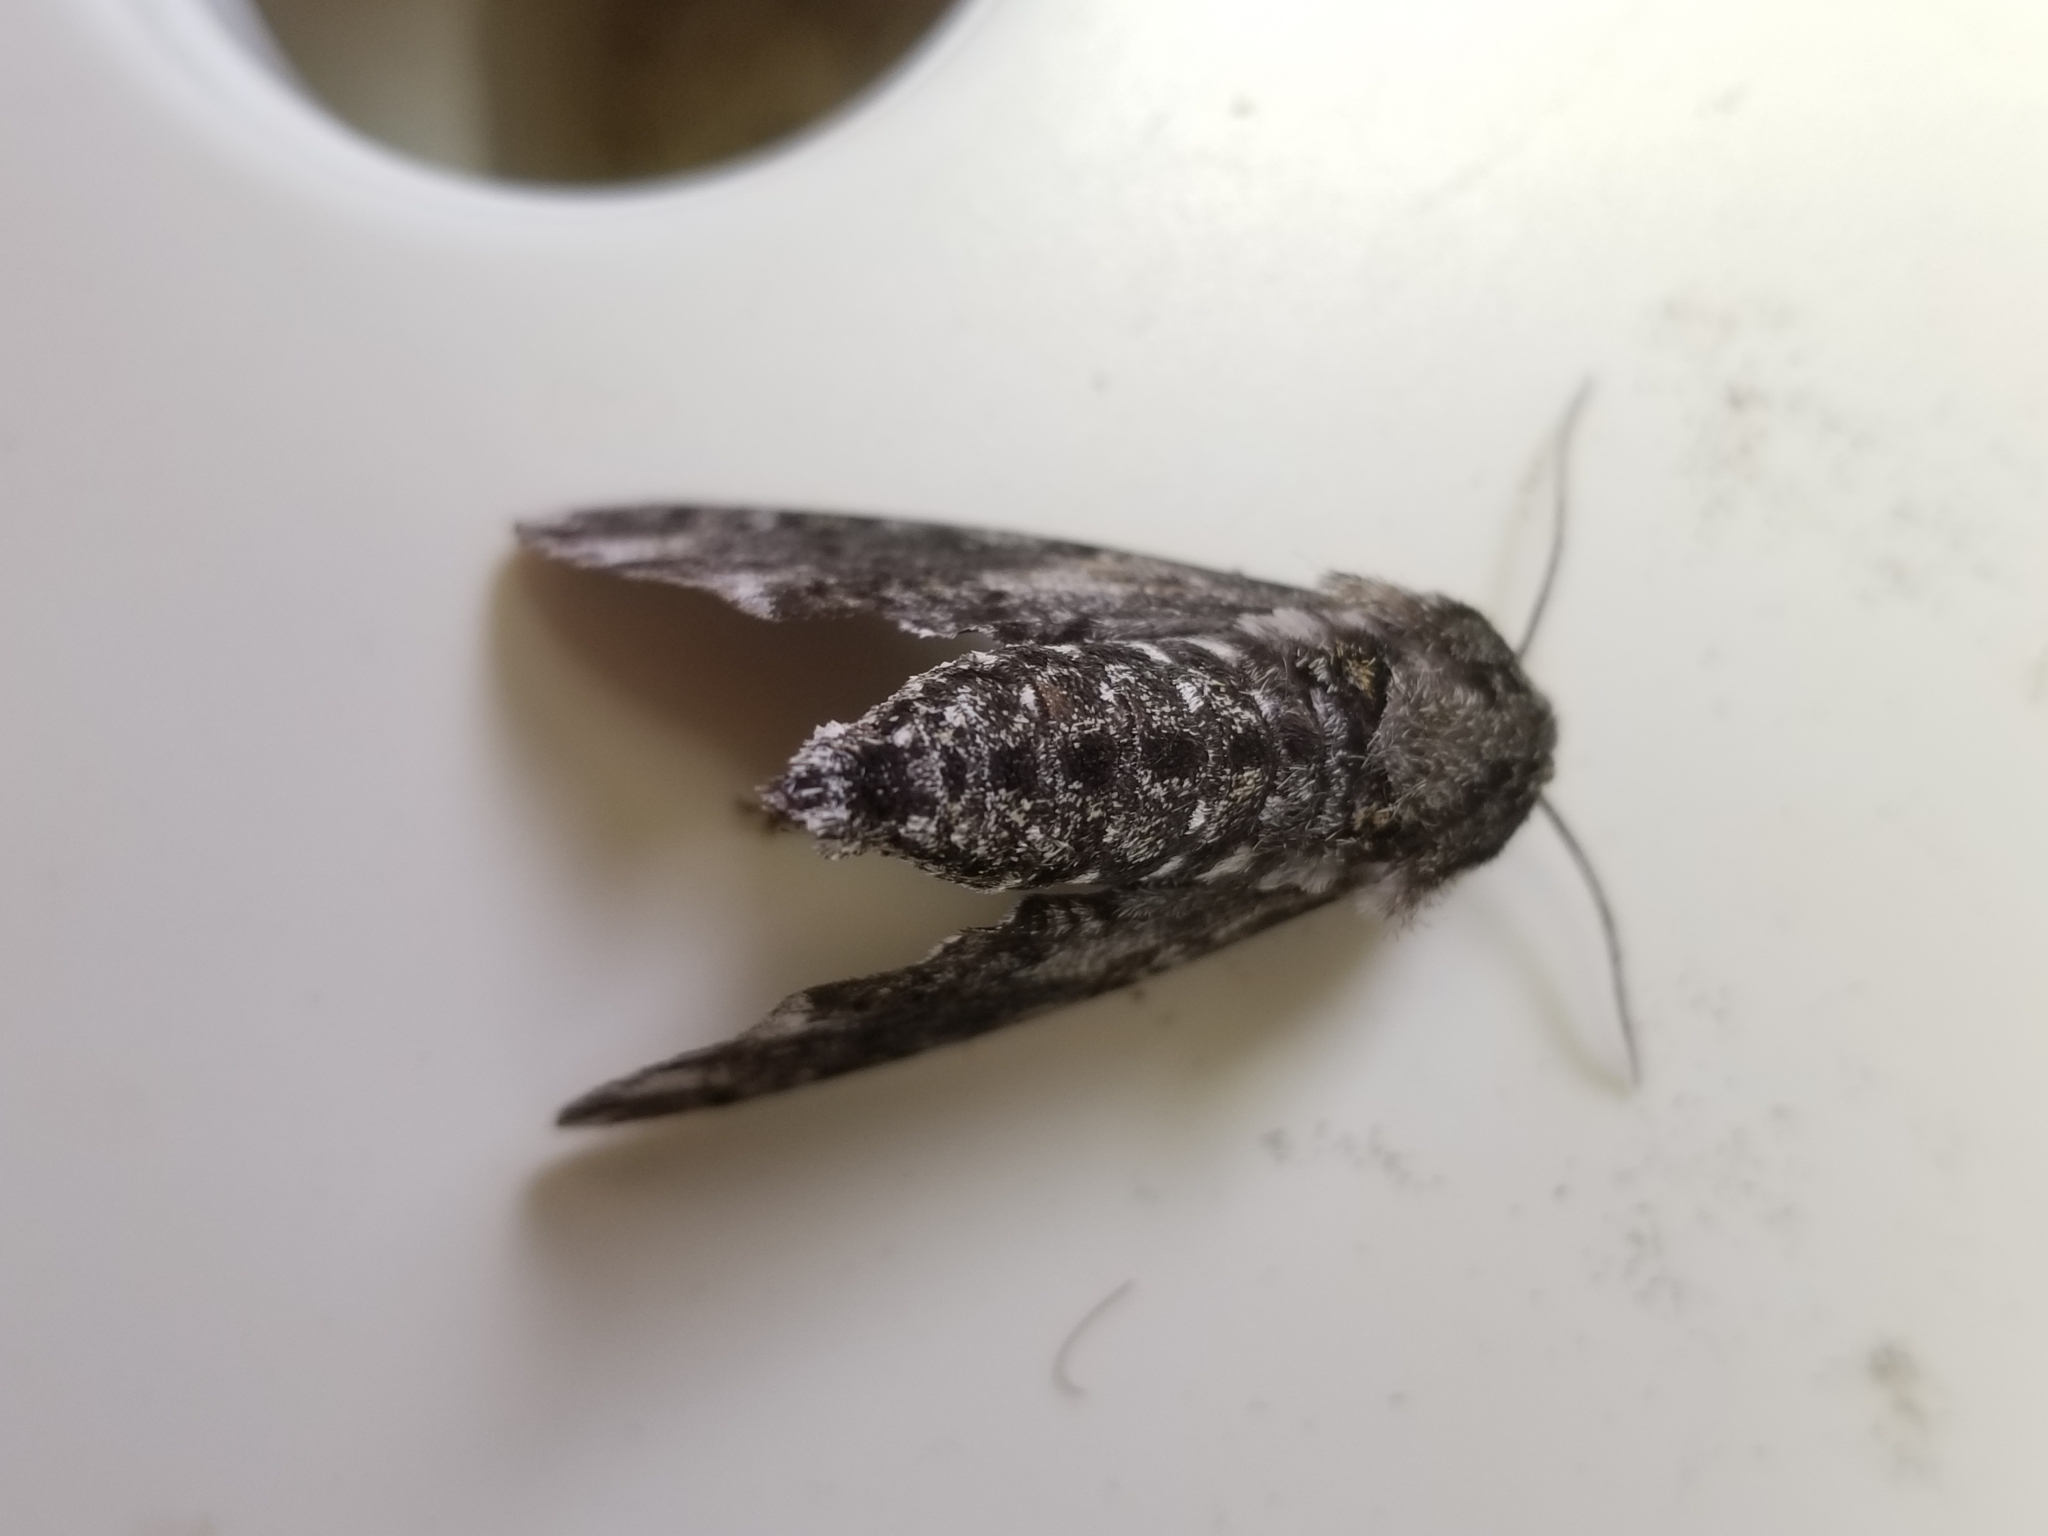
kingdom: Animalia
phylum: Arthropoda
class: Insecta
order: Lepidoptera
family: Sphingidae
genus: Dolba
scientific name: Dolba hyloeus
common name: Pawpaw sphinx
